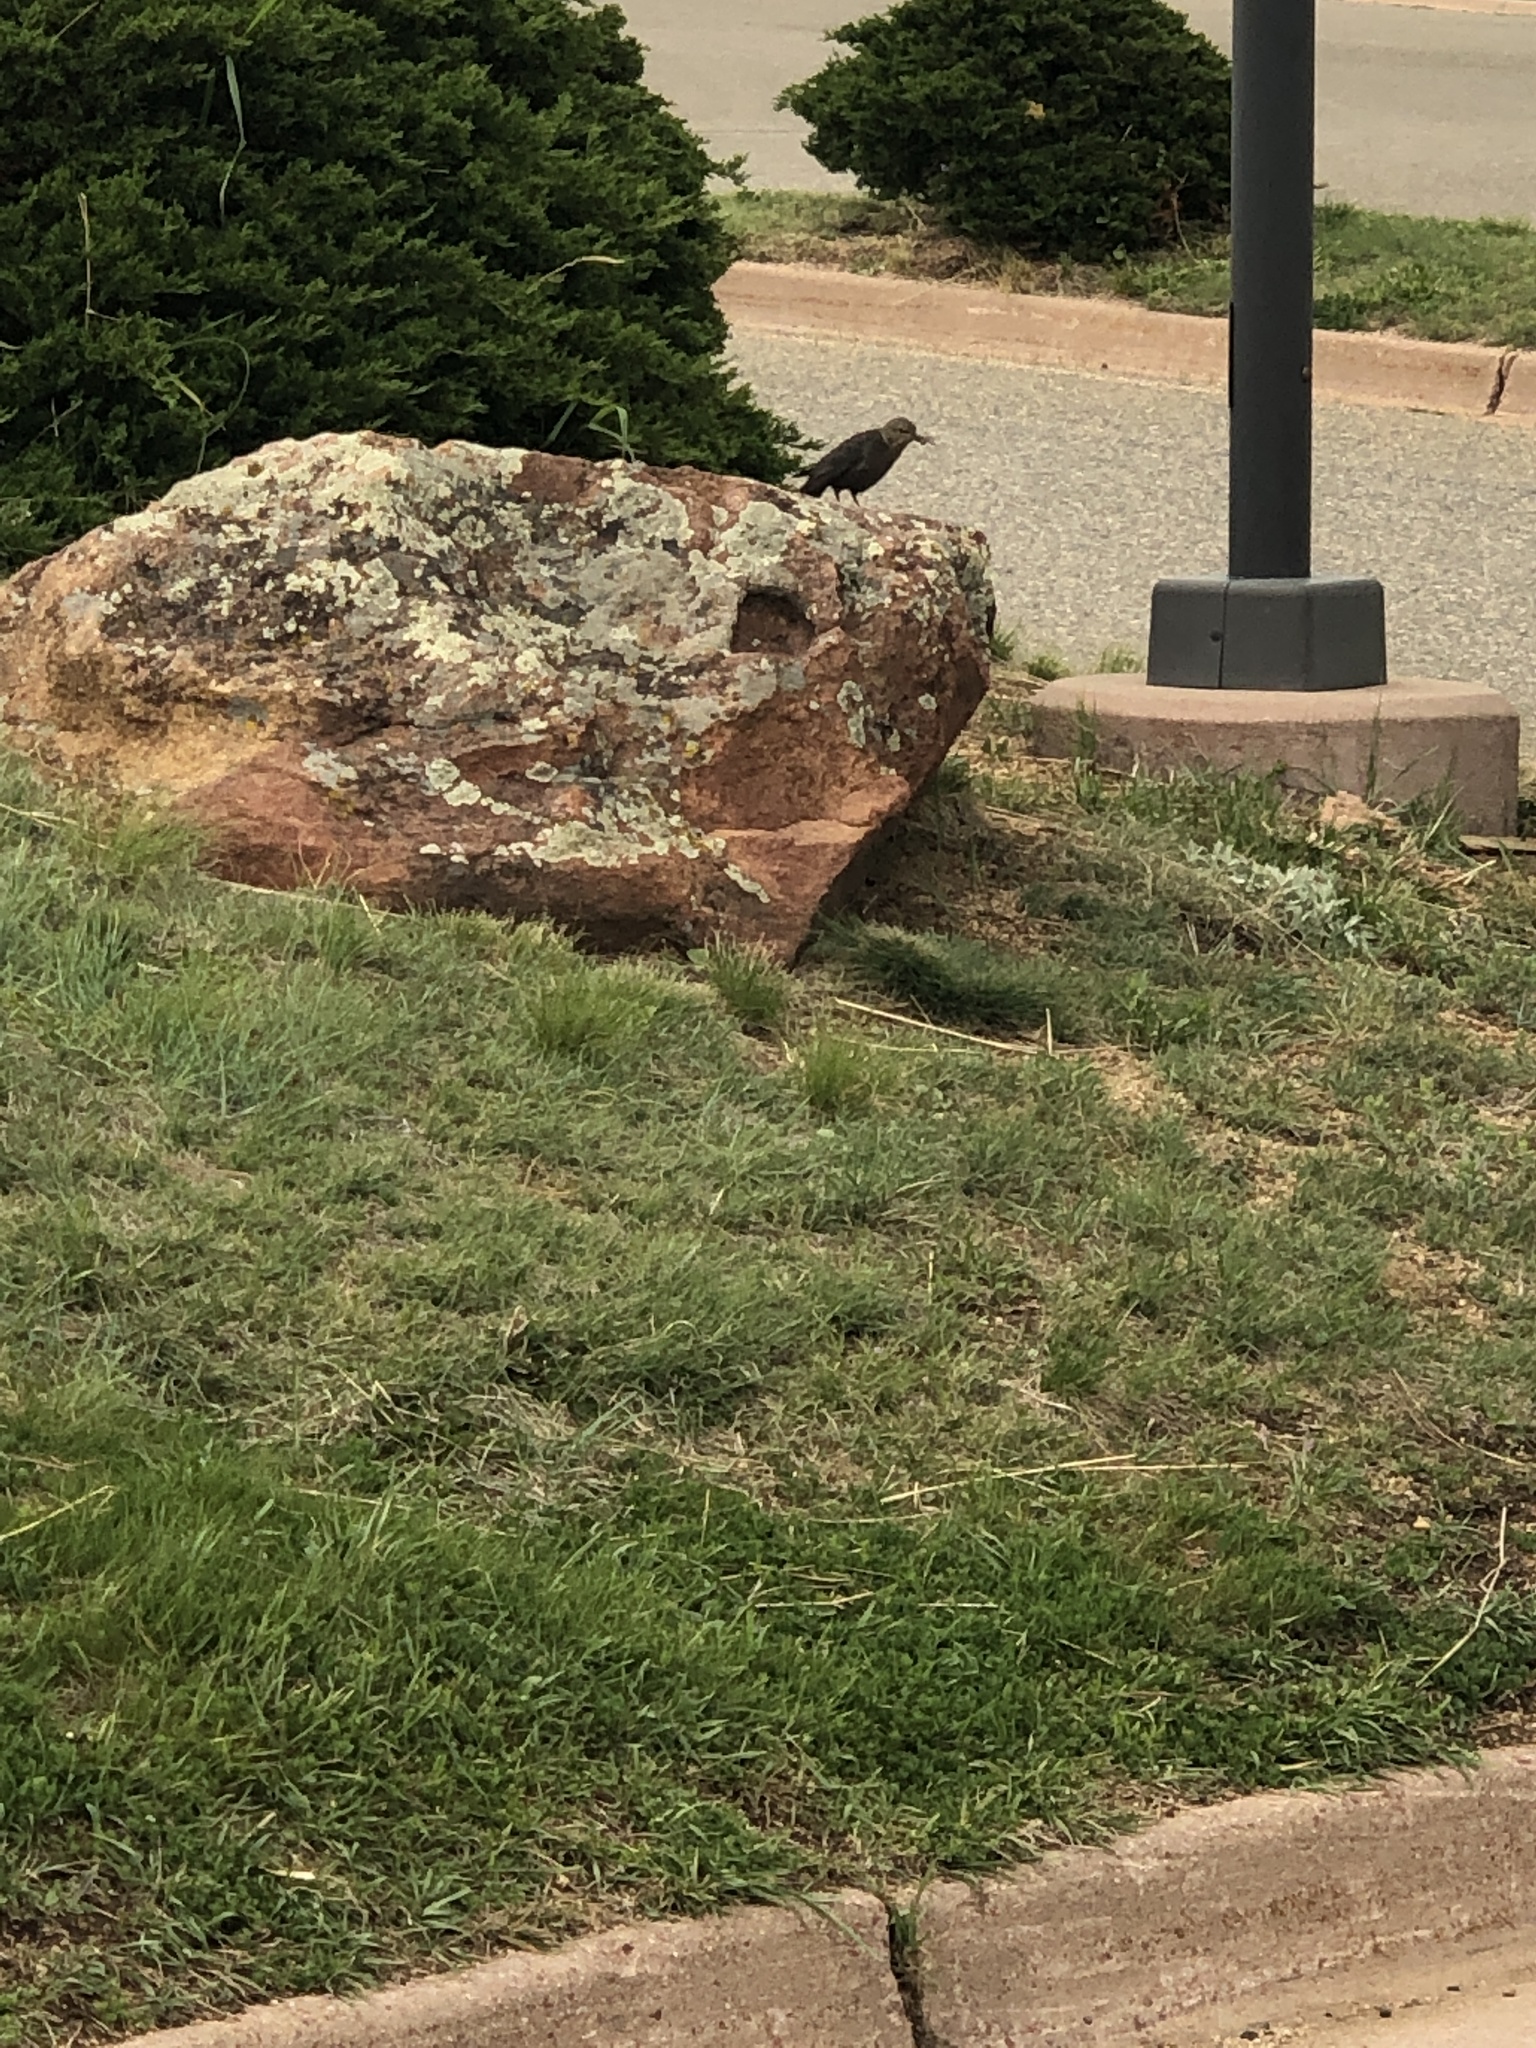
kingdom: Animalia
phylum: Chordata
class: Aves
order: Passeriformes
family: Icteridae
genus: Euphagus
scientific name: Euphagus cyanocephalus
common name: Brewer's blackbird
